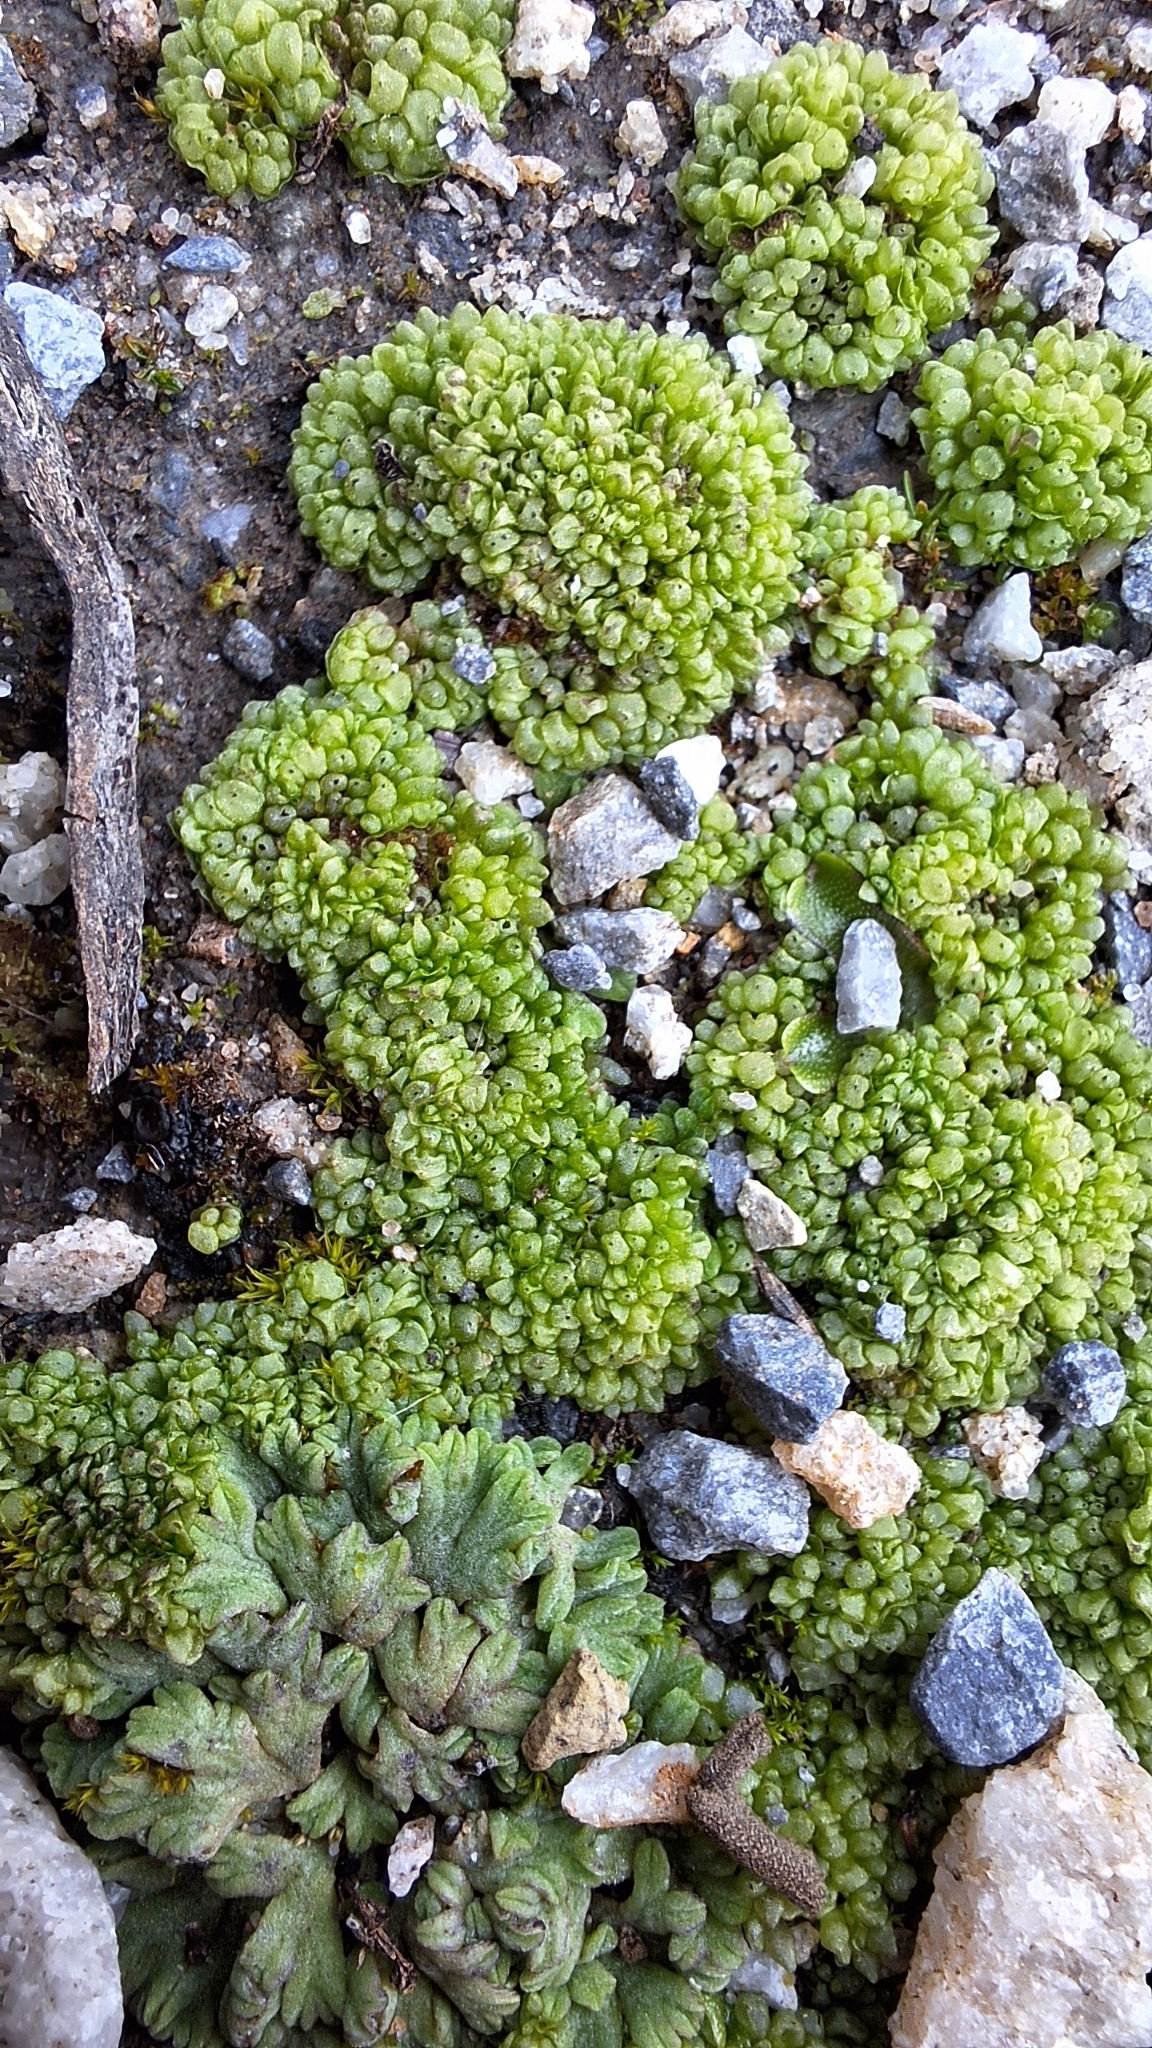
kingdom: Plantae
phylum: Marchantiophyta
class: Marchantiopsida
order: Sphaerocarpales
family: Sphaerocarpaceae
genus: Sphaerocarpos
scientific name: Sphaerocarpos texanus
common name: Texas balloonwort
